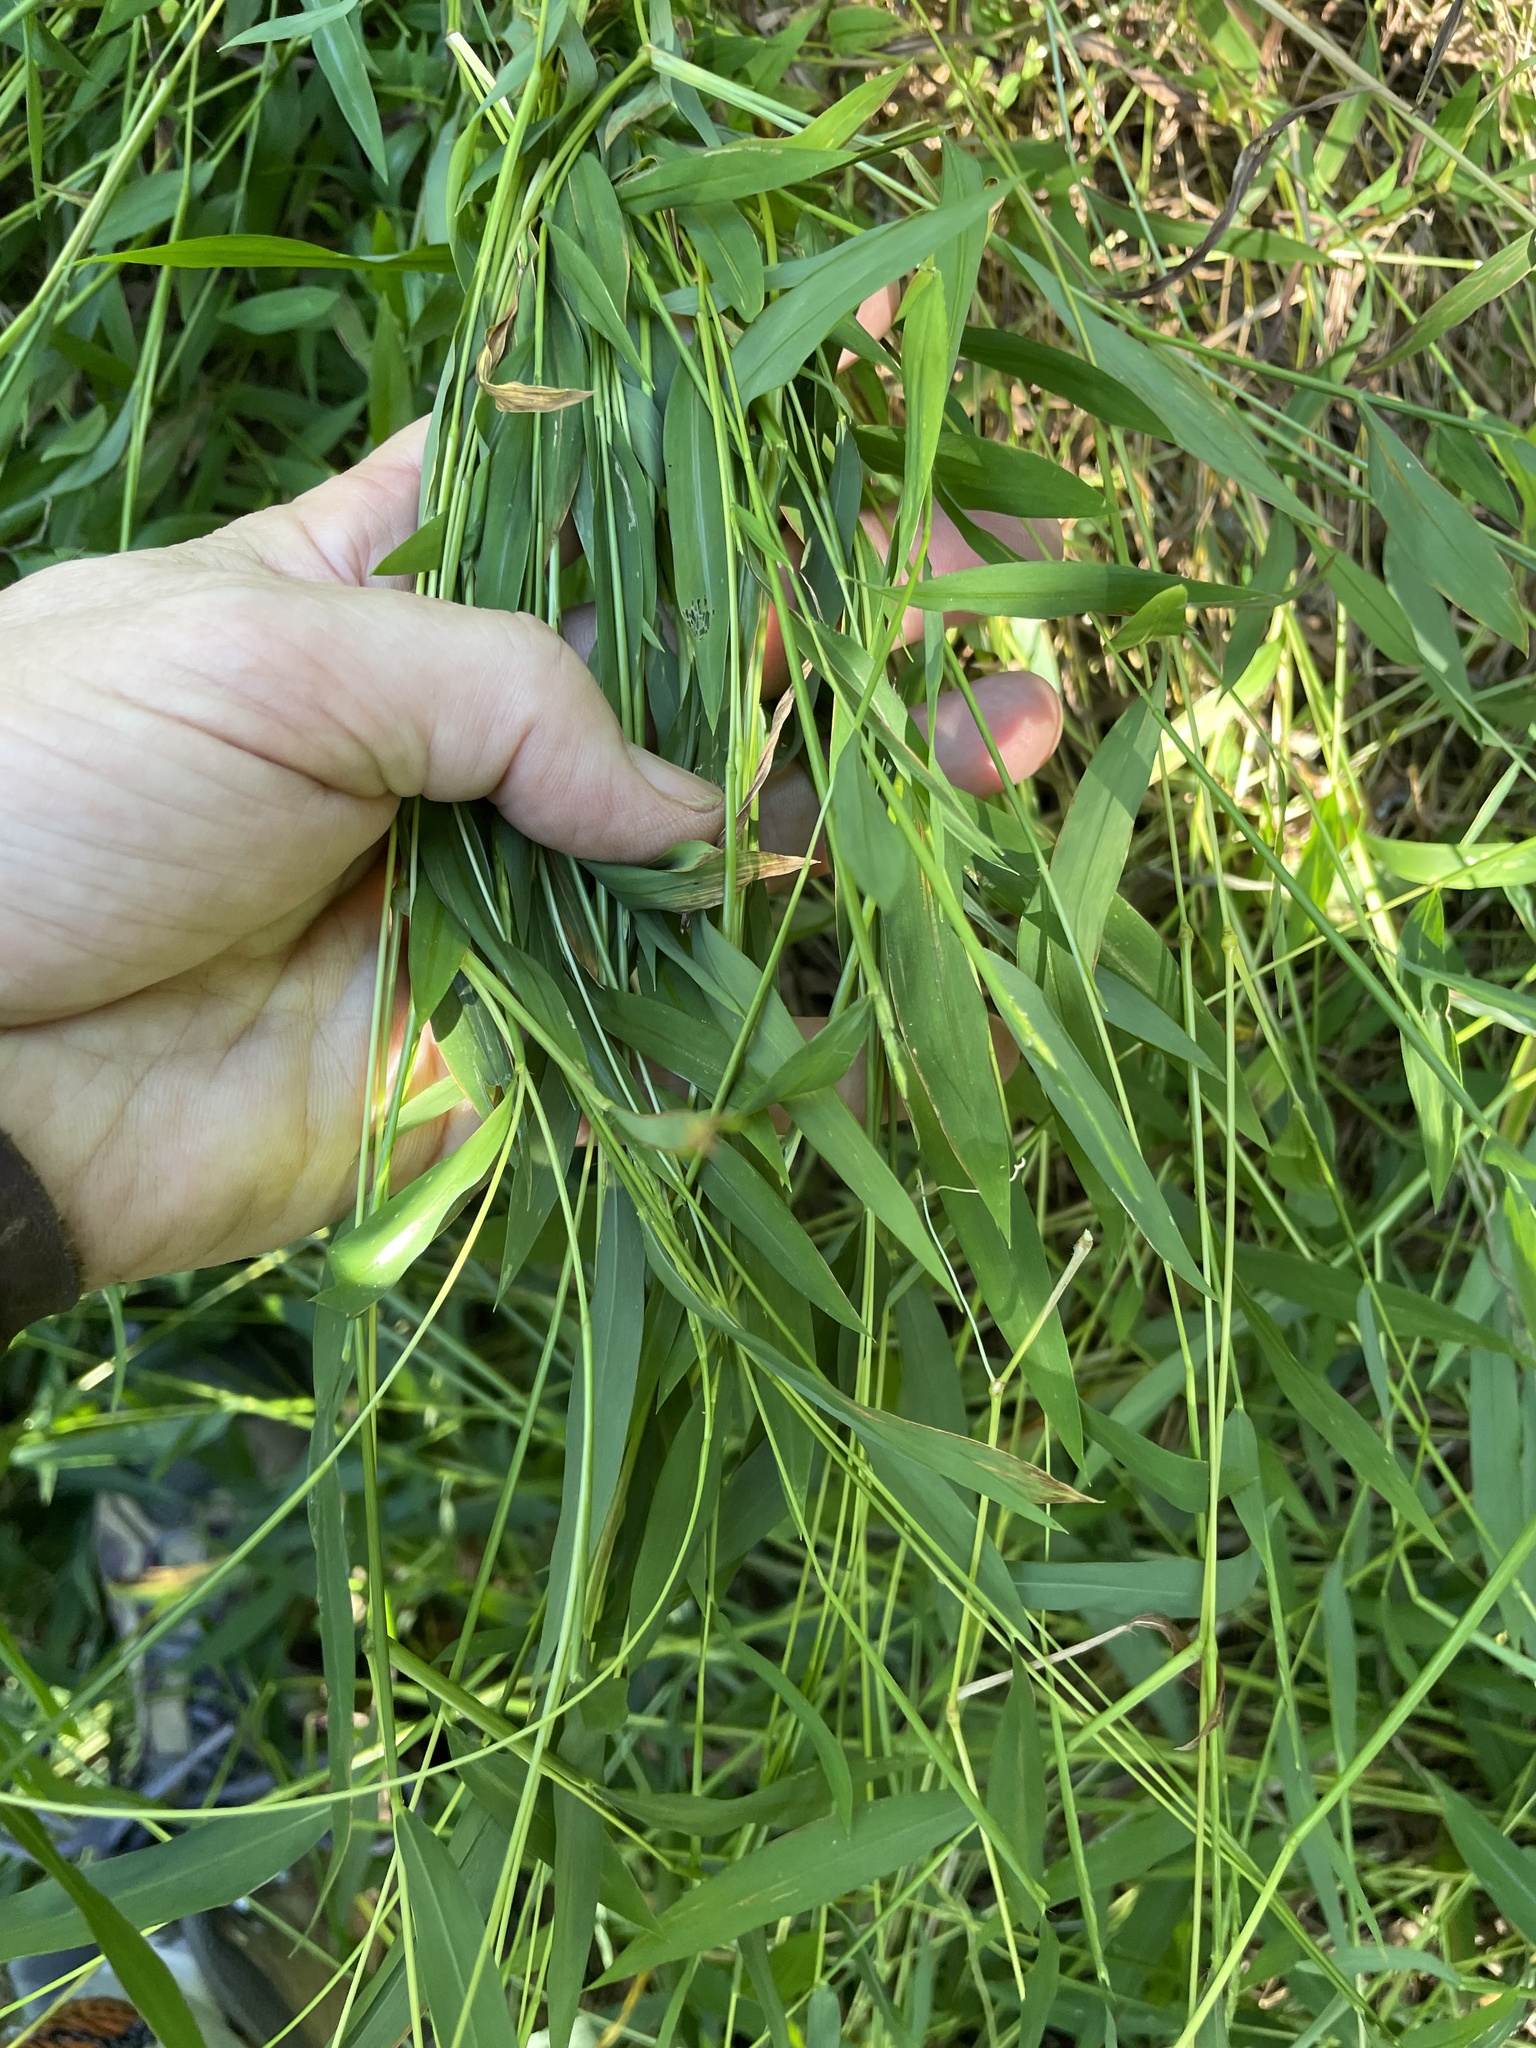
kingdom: Plantae
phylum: Tracheophyta
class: Liliopsida
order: Poales
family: Poaceae
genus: Microstegium
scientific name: Microstegium vimineum
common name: Japanese stiltgrass
